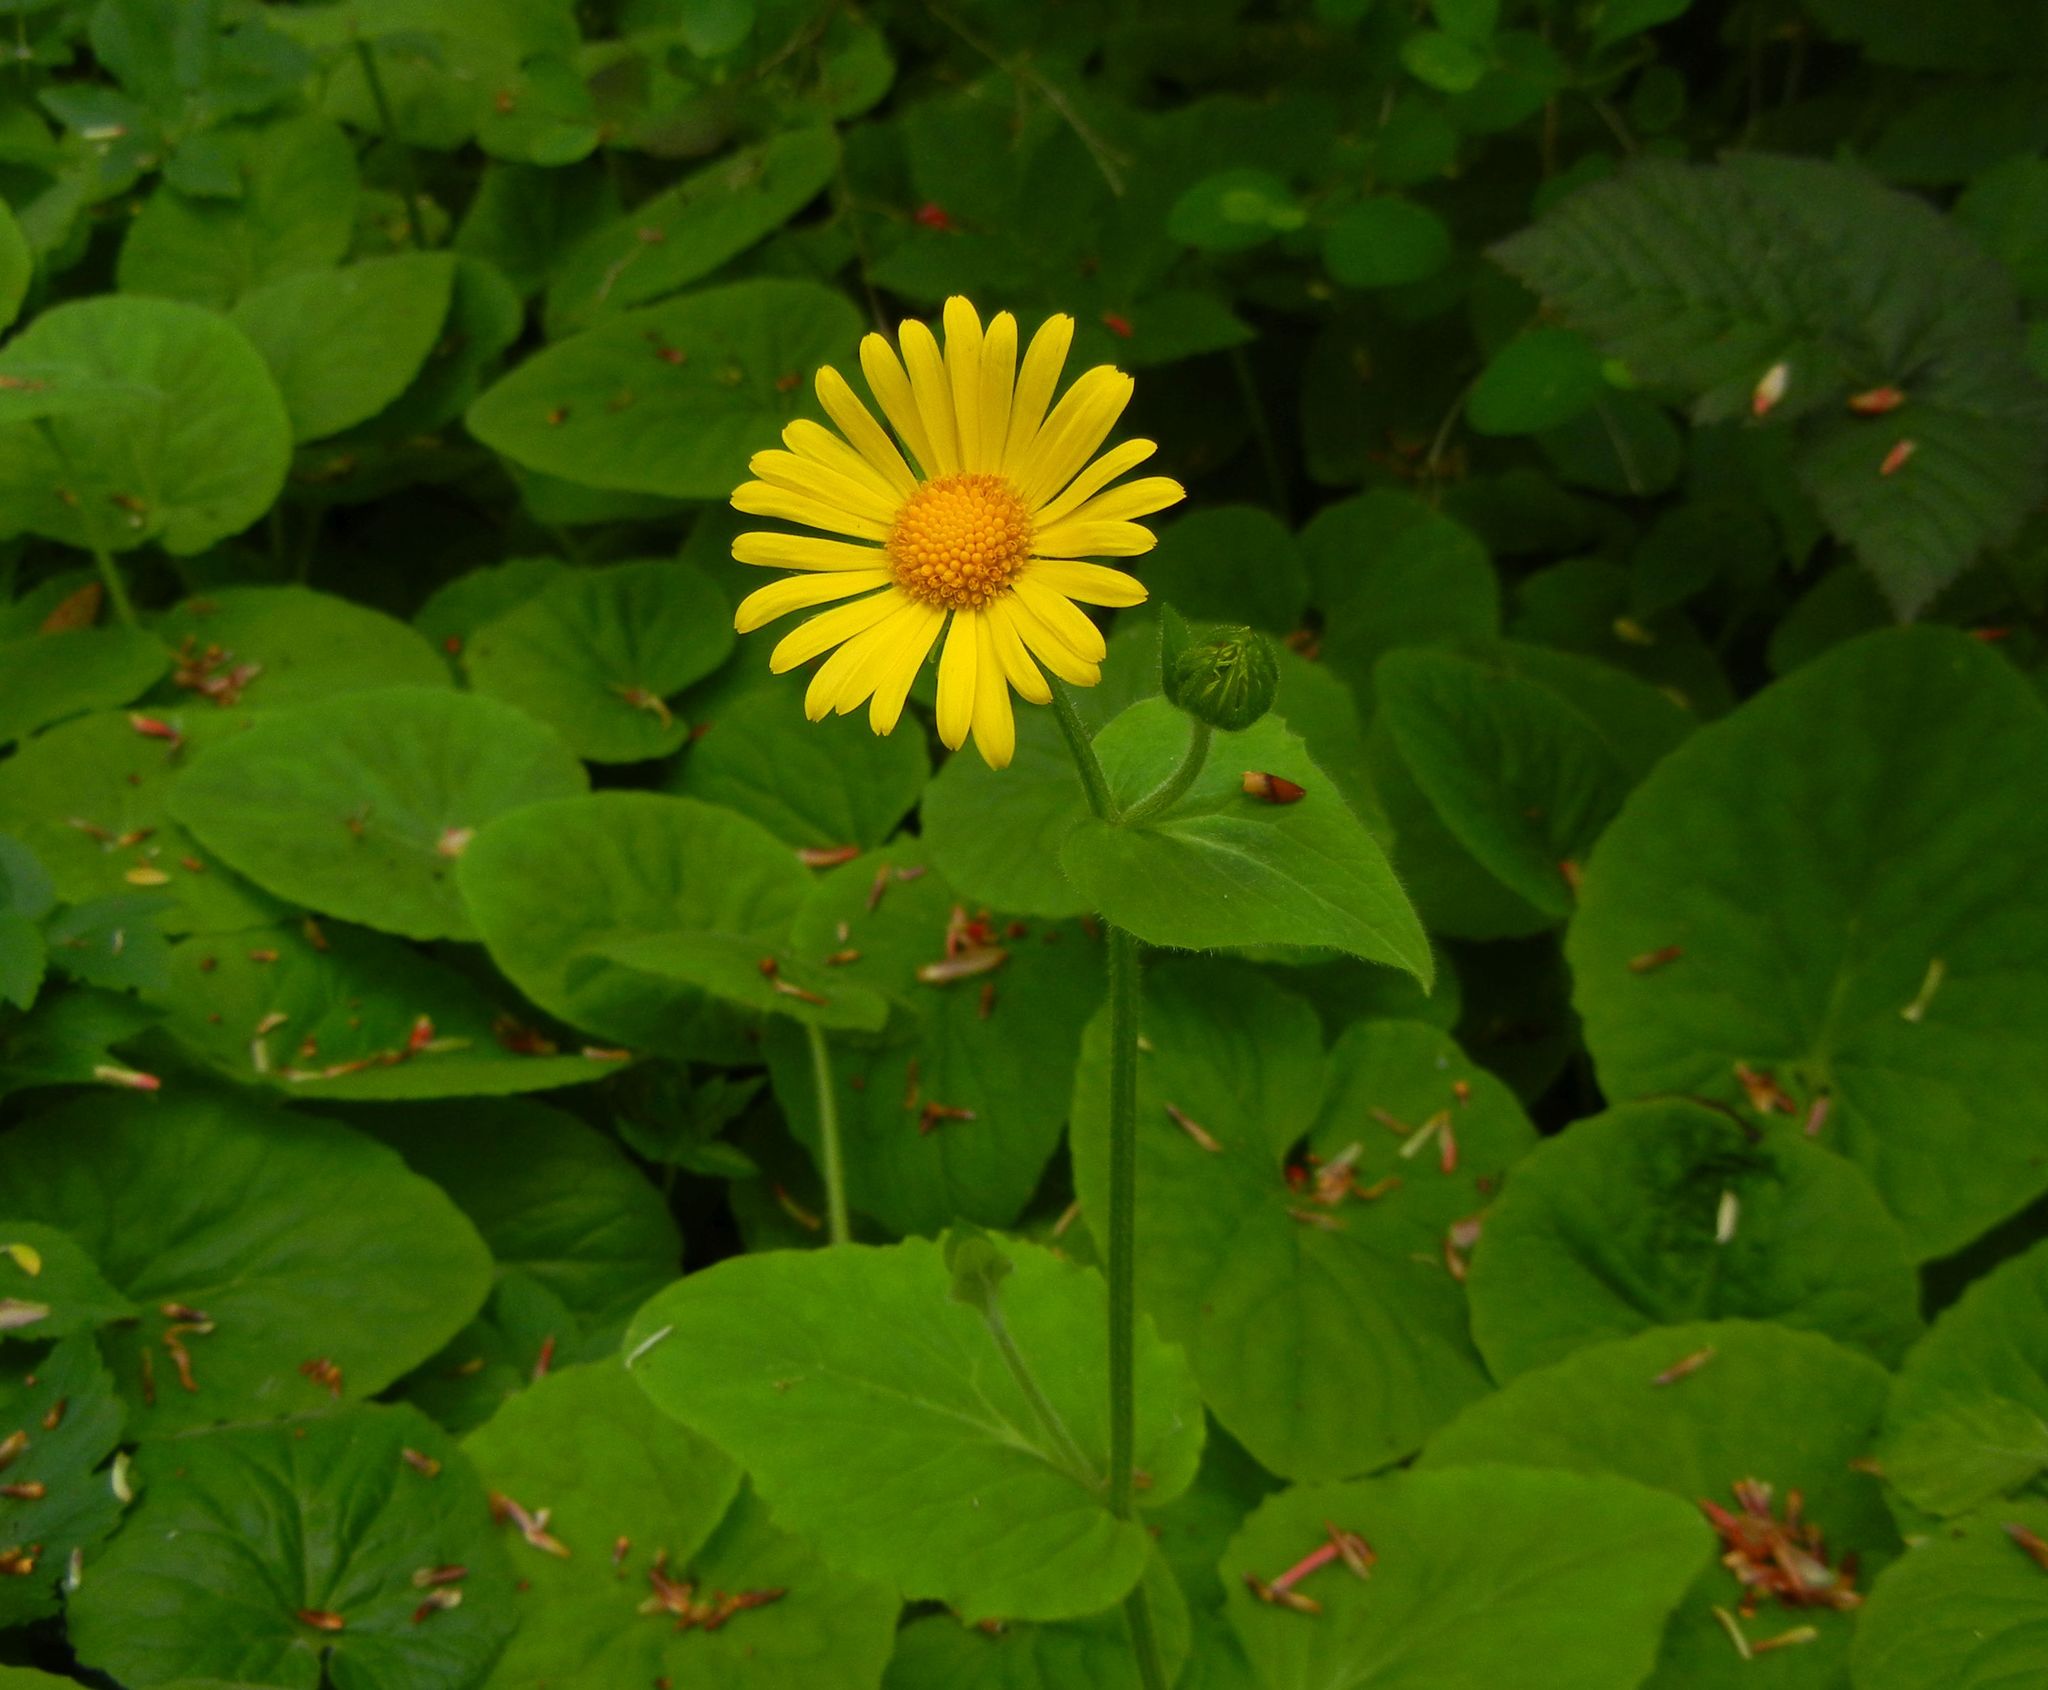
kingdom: Plantae
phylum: Tracheophyta
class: Magnoliopsida
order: Asterales
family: Asteraceae
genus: Doronicum
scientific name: Doronicum pardalianches
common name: Leopard's-bane
